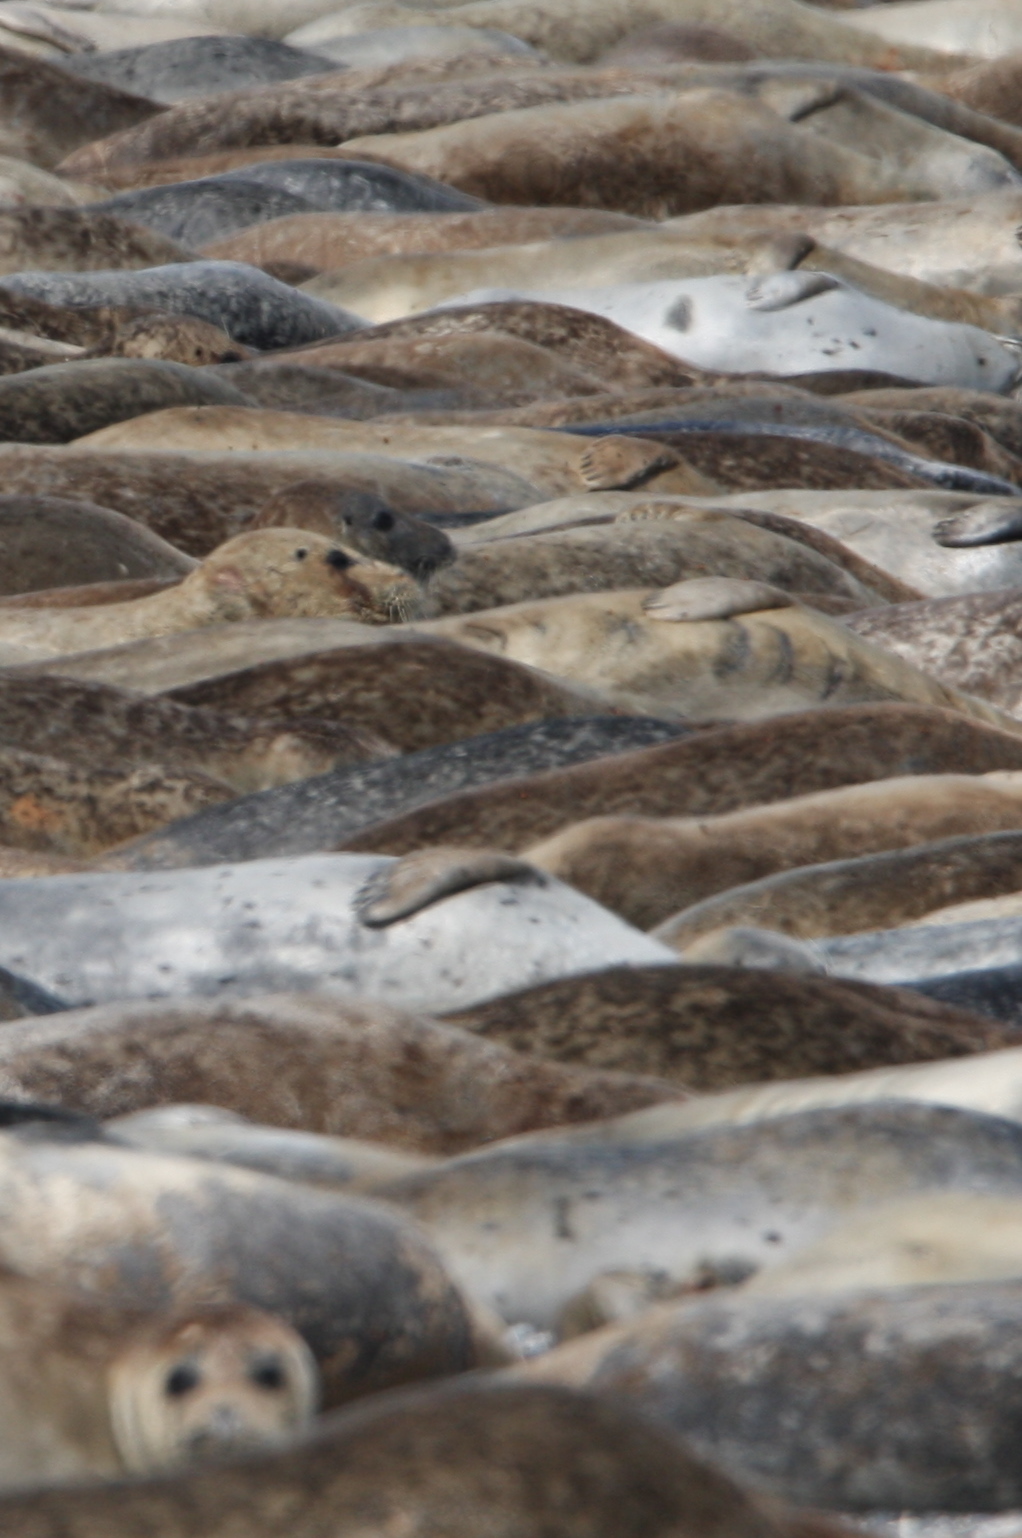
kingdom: Animalia
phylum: Chordata
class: Mammalia
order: Carnivora
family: Phocidae
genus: Halichoerus
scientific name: Halichoerus grypus
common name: Grey seal
